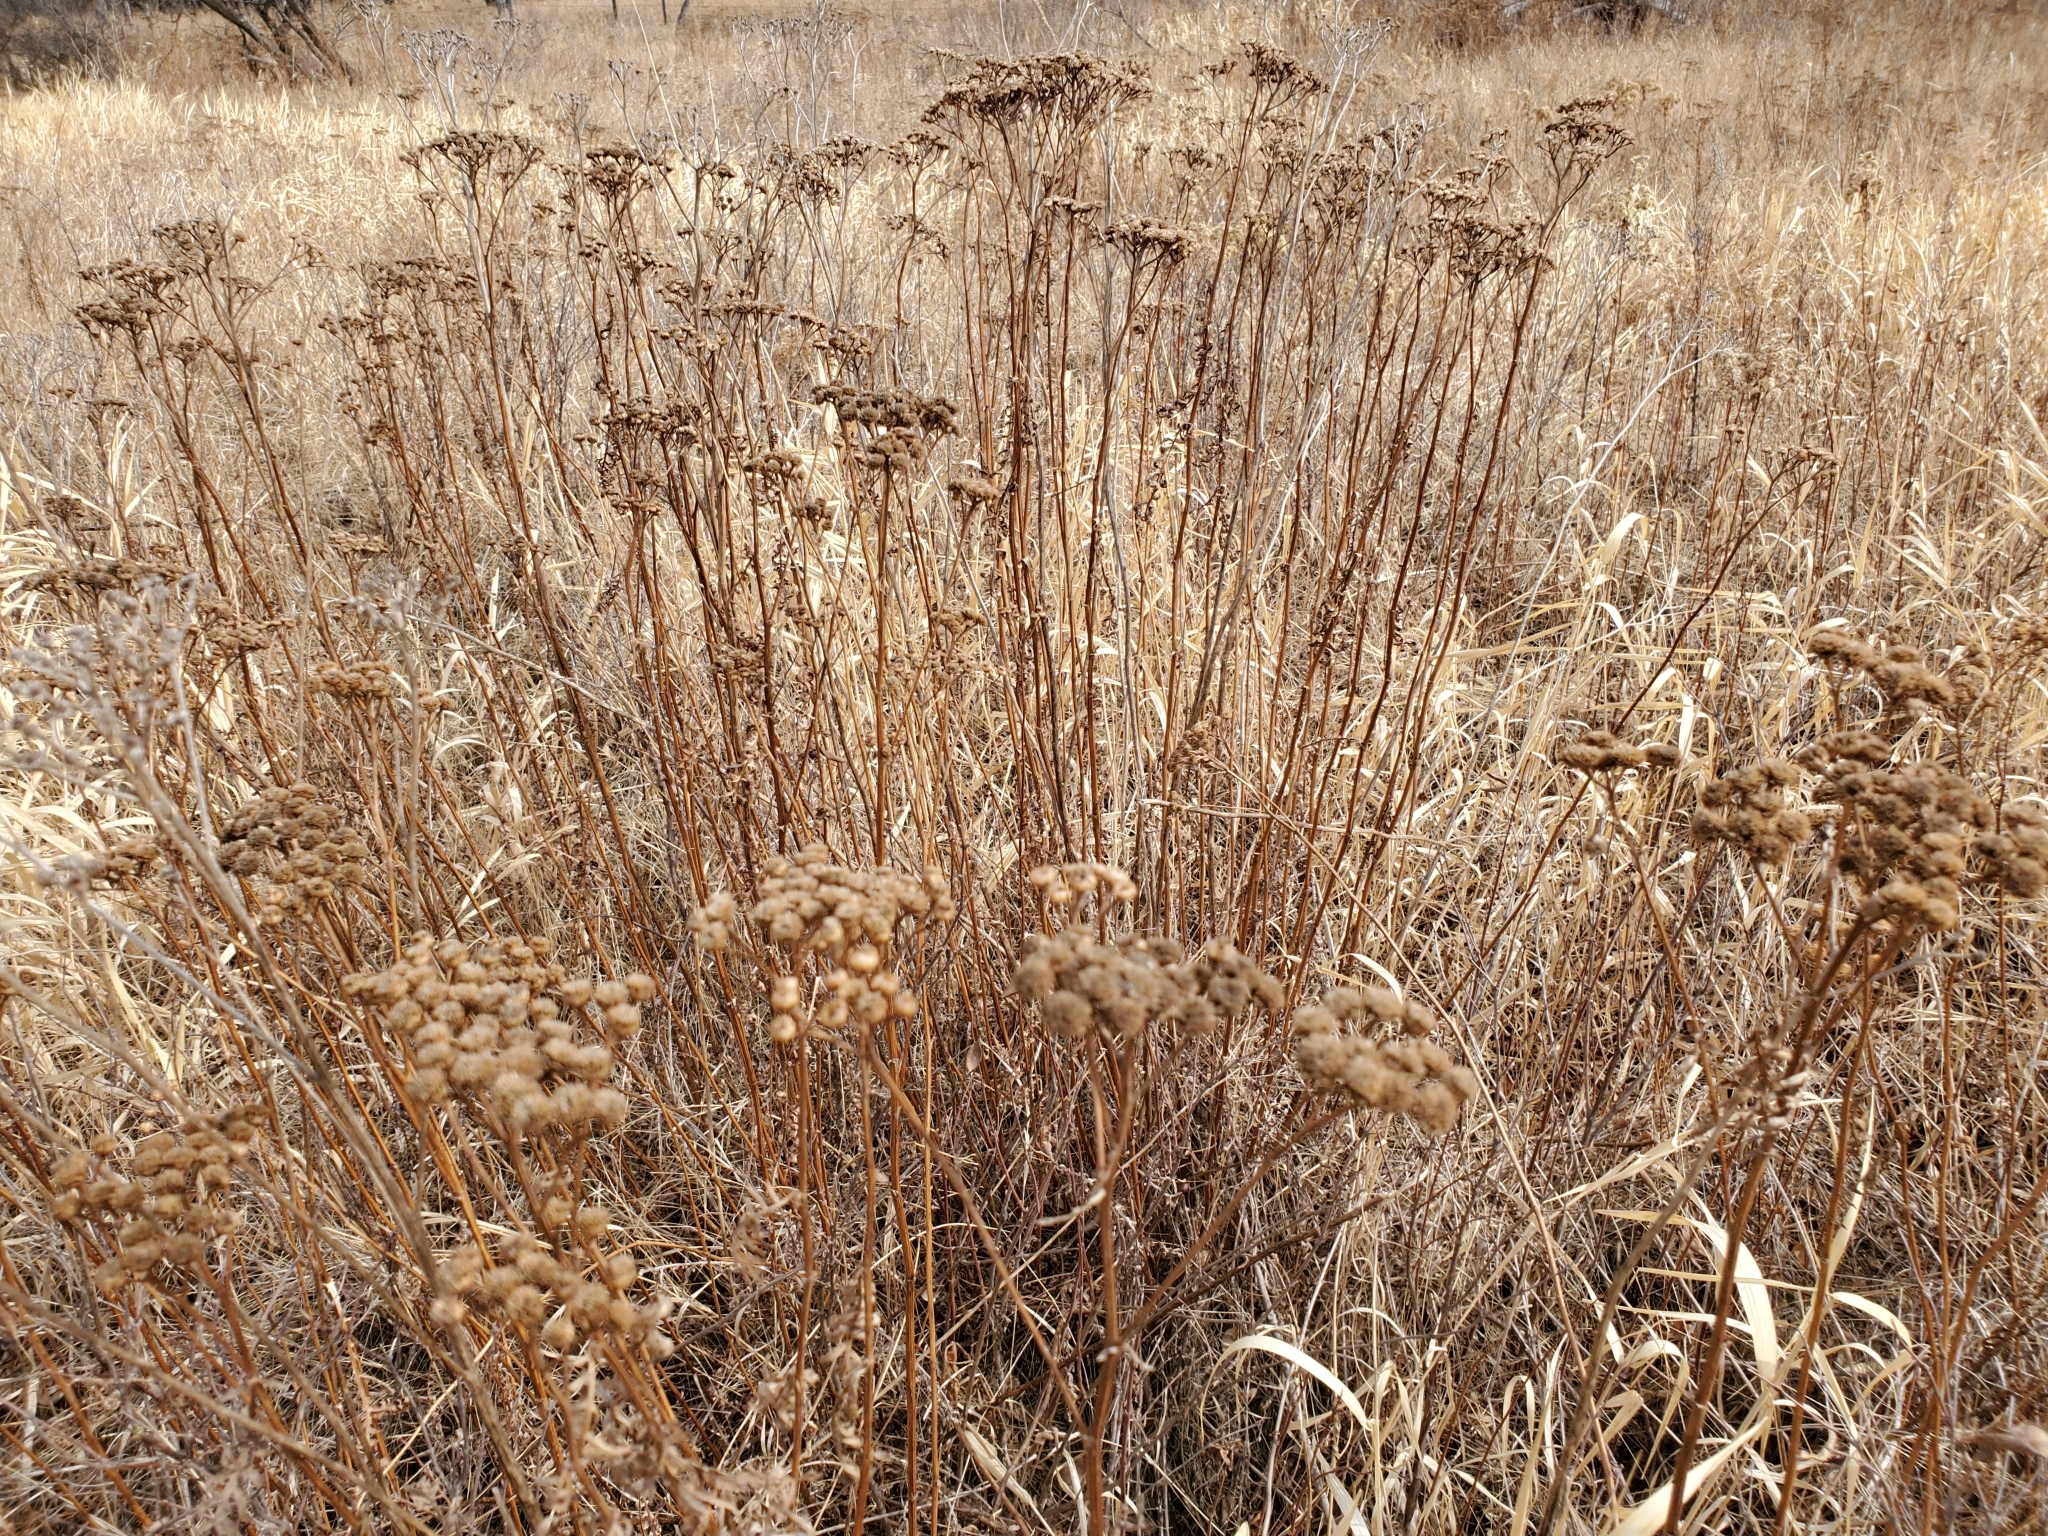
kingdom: Plantae
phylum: Tracheophyta
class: Magnoliopsida
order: Asterales
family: Asteraceae
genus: Tanacetum
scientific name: Tanacetum vulgare
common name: Common tansy
